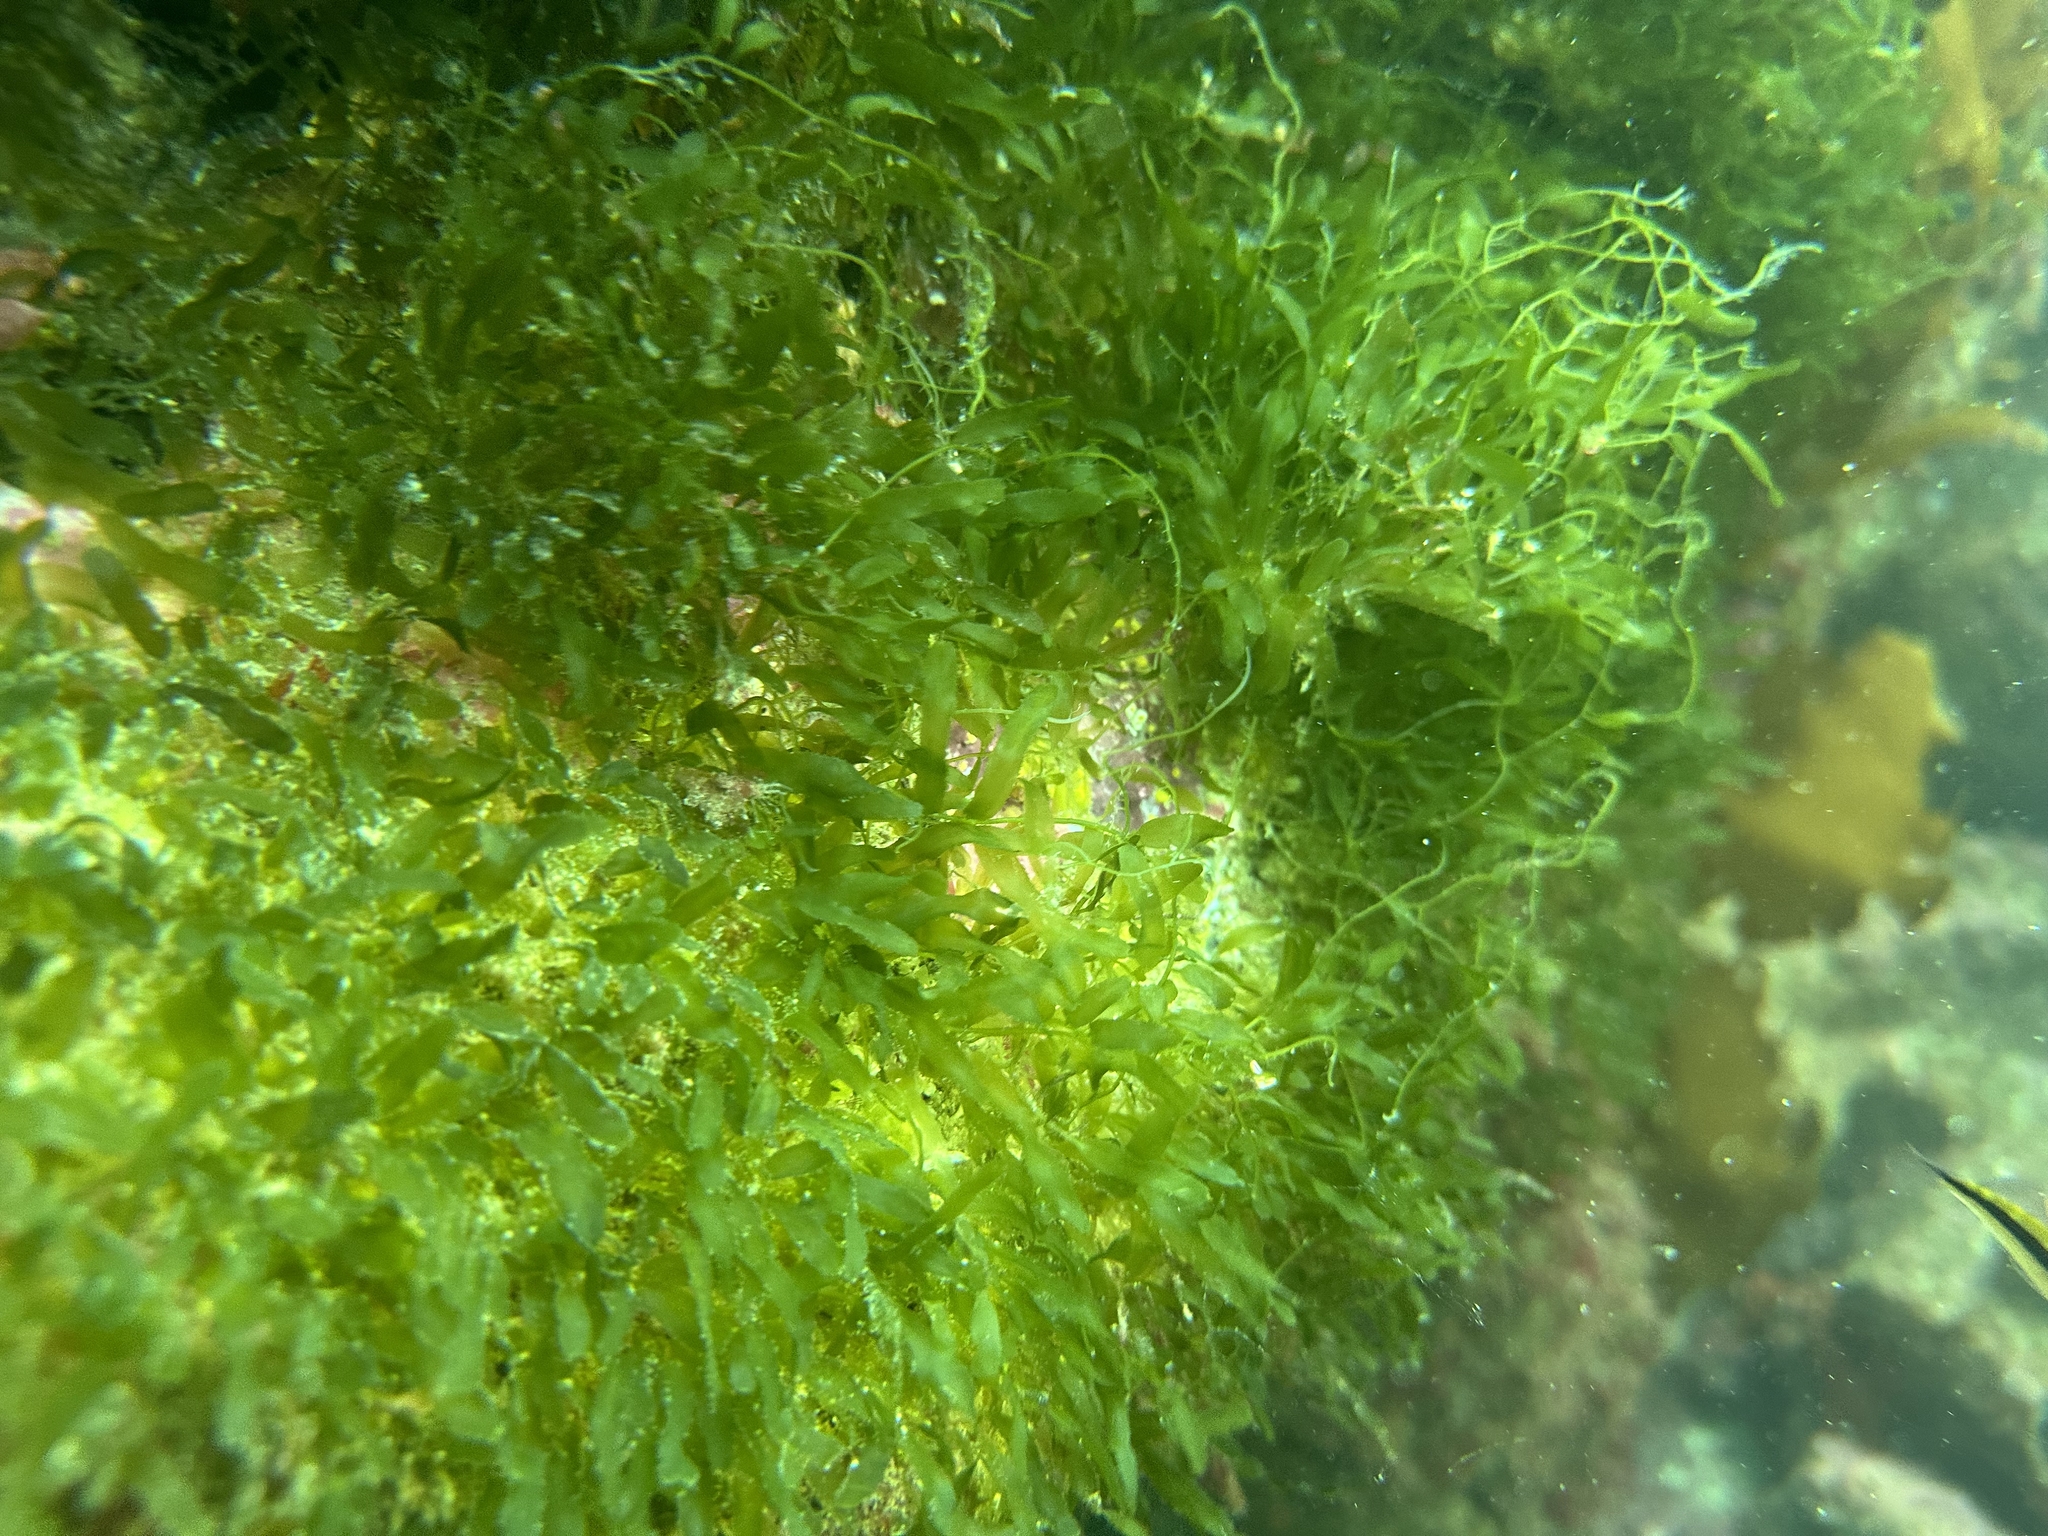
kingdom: Plantae
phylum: Chlorophyta
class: Ulvophyceae
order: Bryopsidales
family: Caulerpaceae
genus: Caulerpa
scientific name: Caulerpa brachypus
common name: Macroalgae
